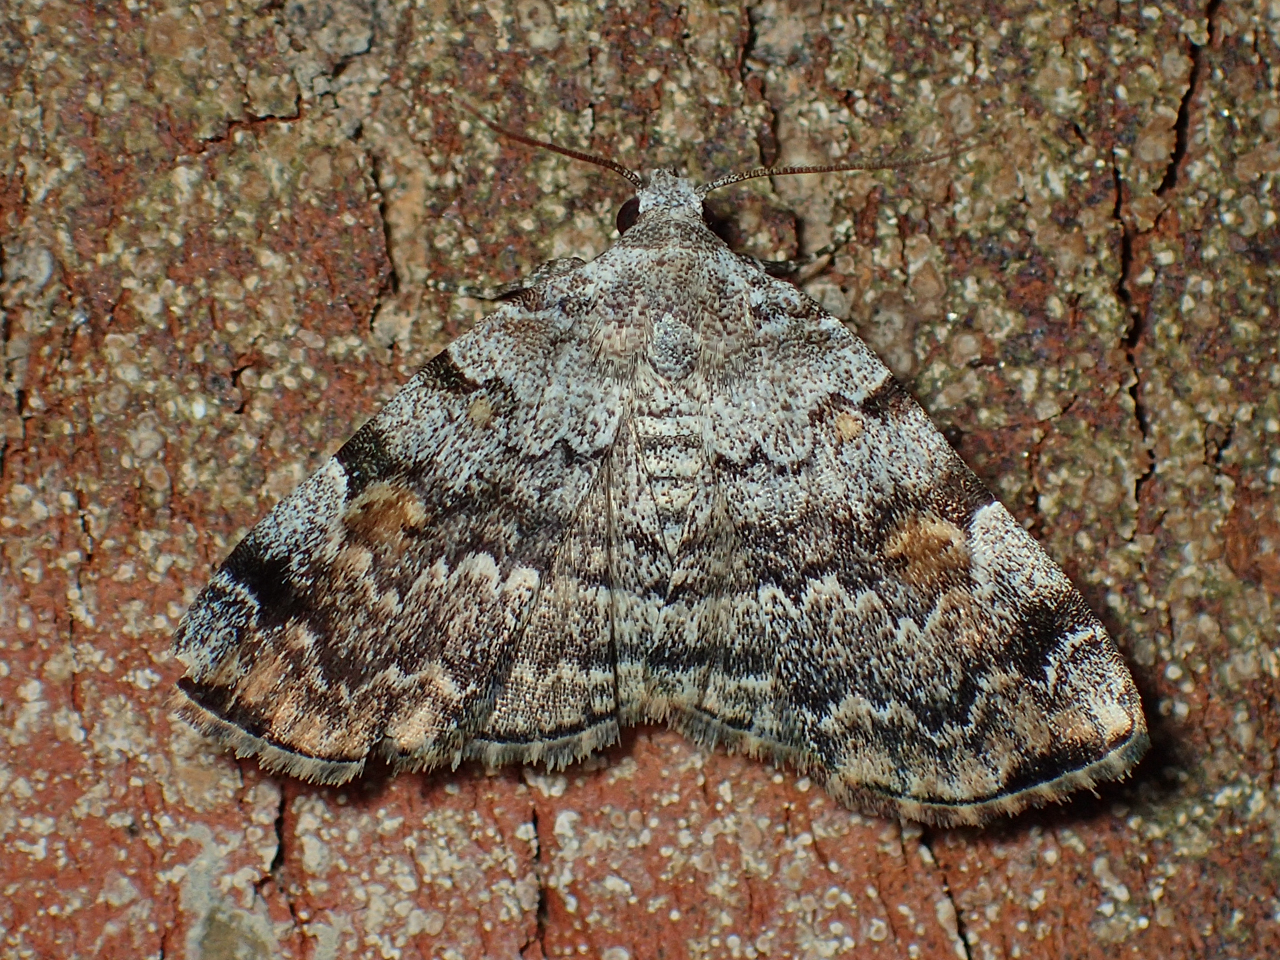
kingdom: Animalia
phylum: Arthropoda
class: Insecta
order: Lepidoptera
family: Erebidae
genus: Idia
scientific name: Idia americalis
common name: American idia moth
